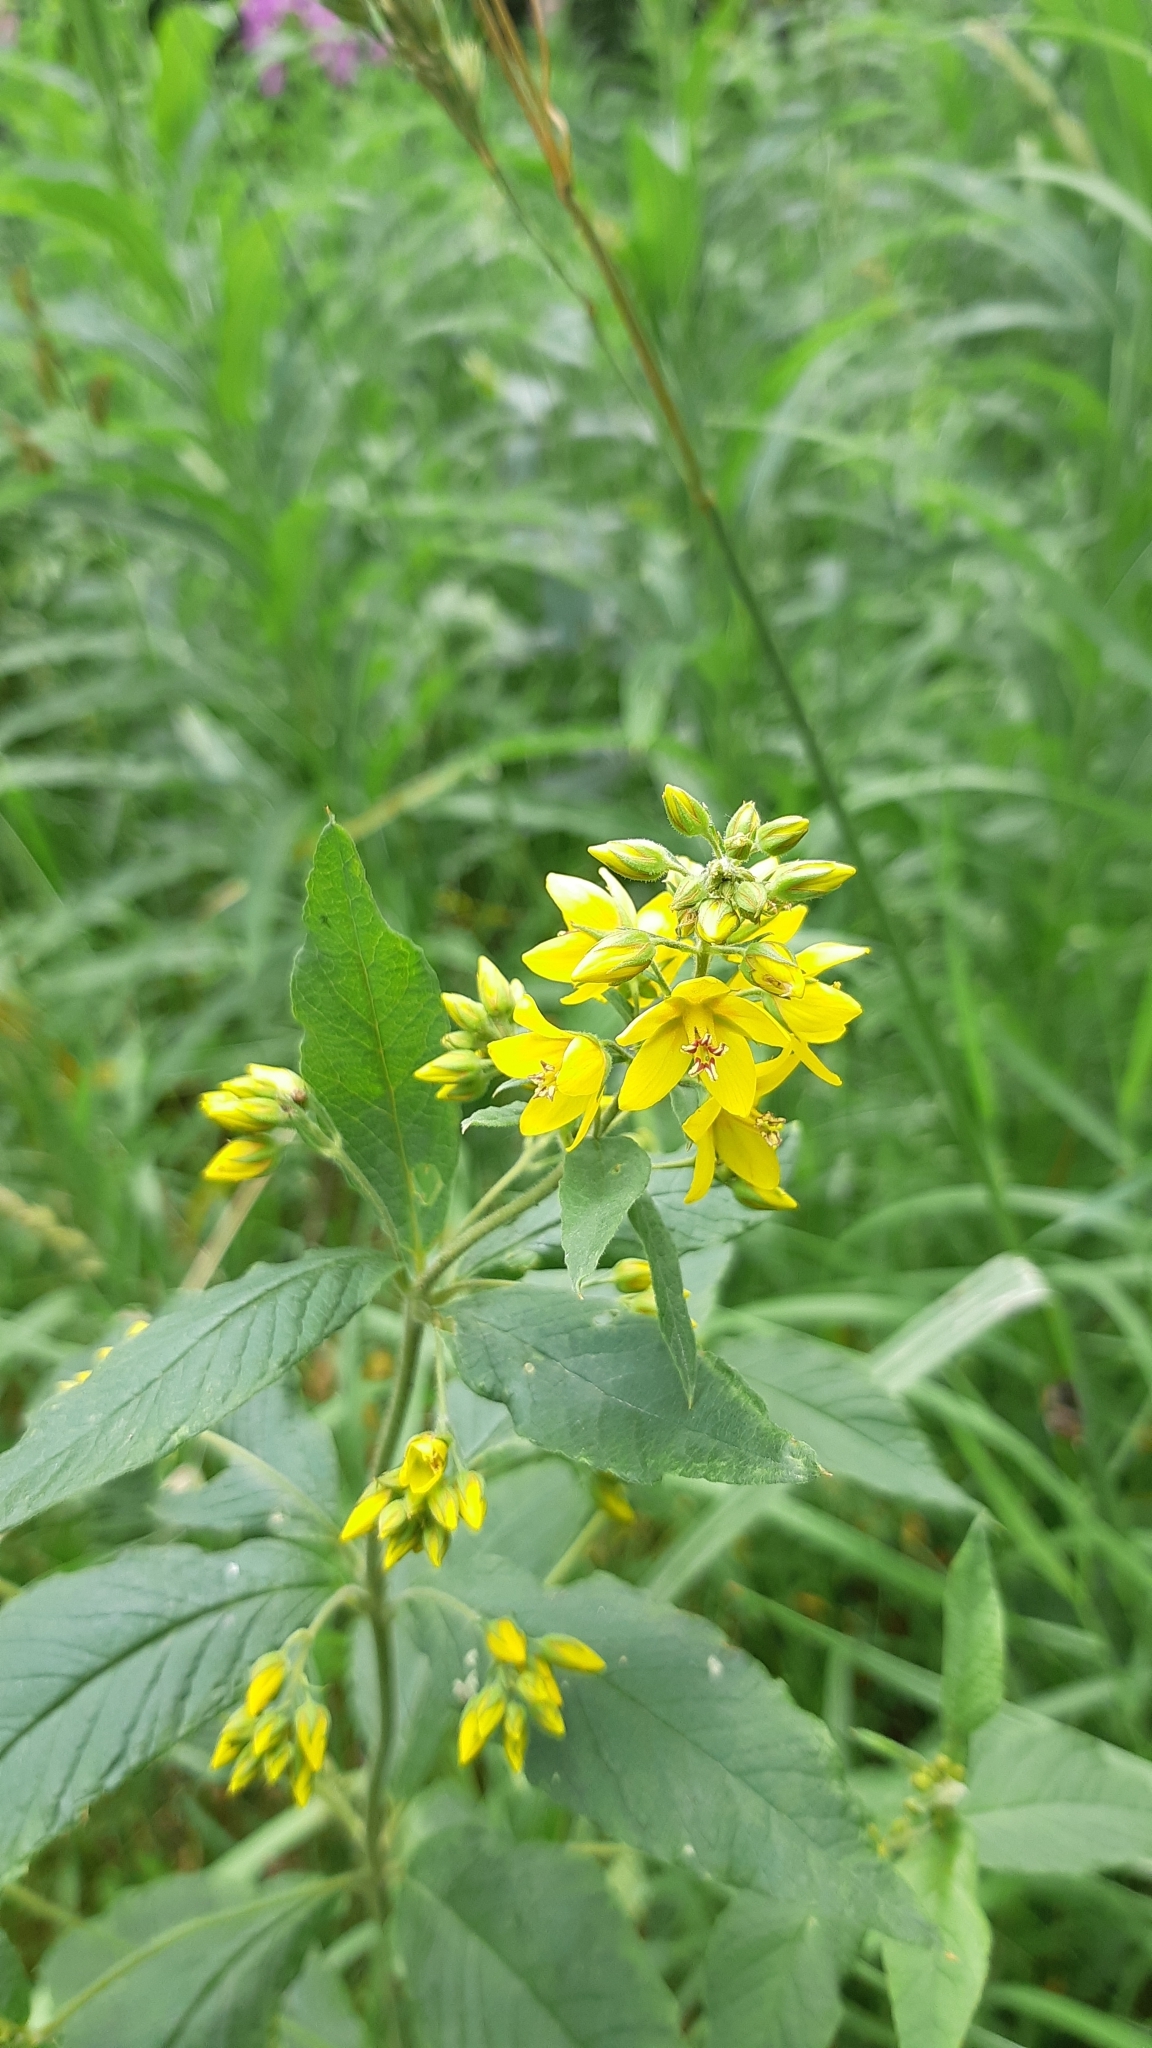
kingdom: Plantae
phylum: Tracheophyta
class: Magnoliopsida
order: Ericales
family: Primulaceae
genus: Lysimachia
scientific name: Lysimachia vulgaris
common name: Yellow loosestrife
